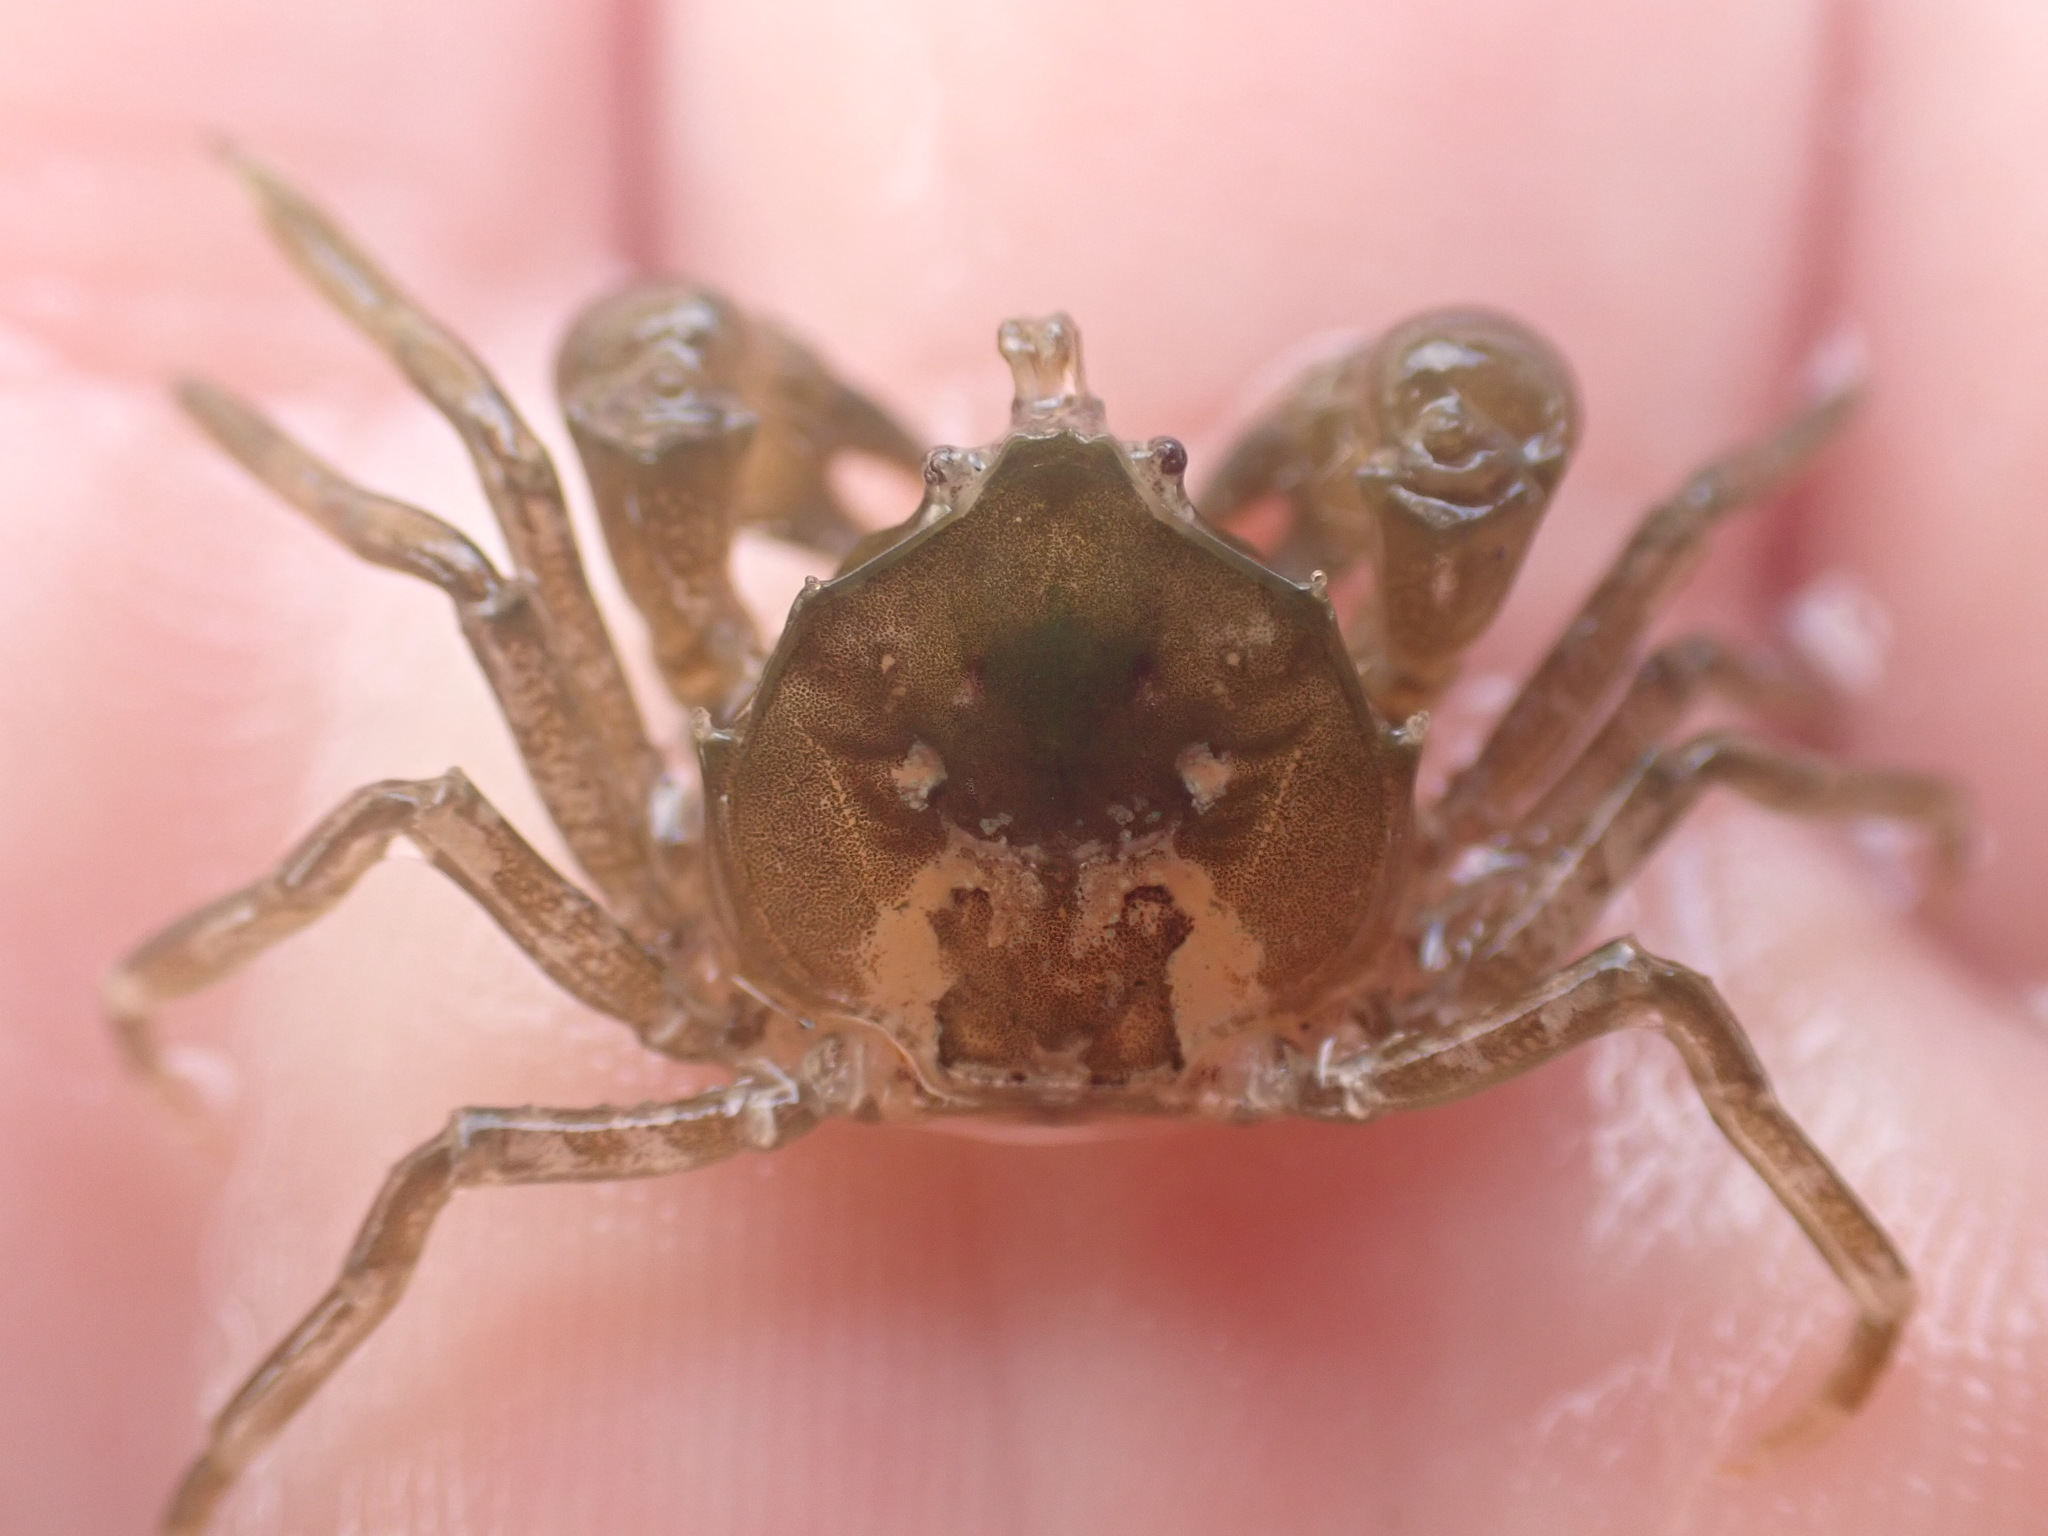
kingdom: Animalia
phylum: Arthropoda
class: Malacostraca
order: Decapoda
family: Hymenosomatidae
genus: Halicarcinus
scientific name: Halicarcinus cookii
